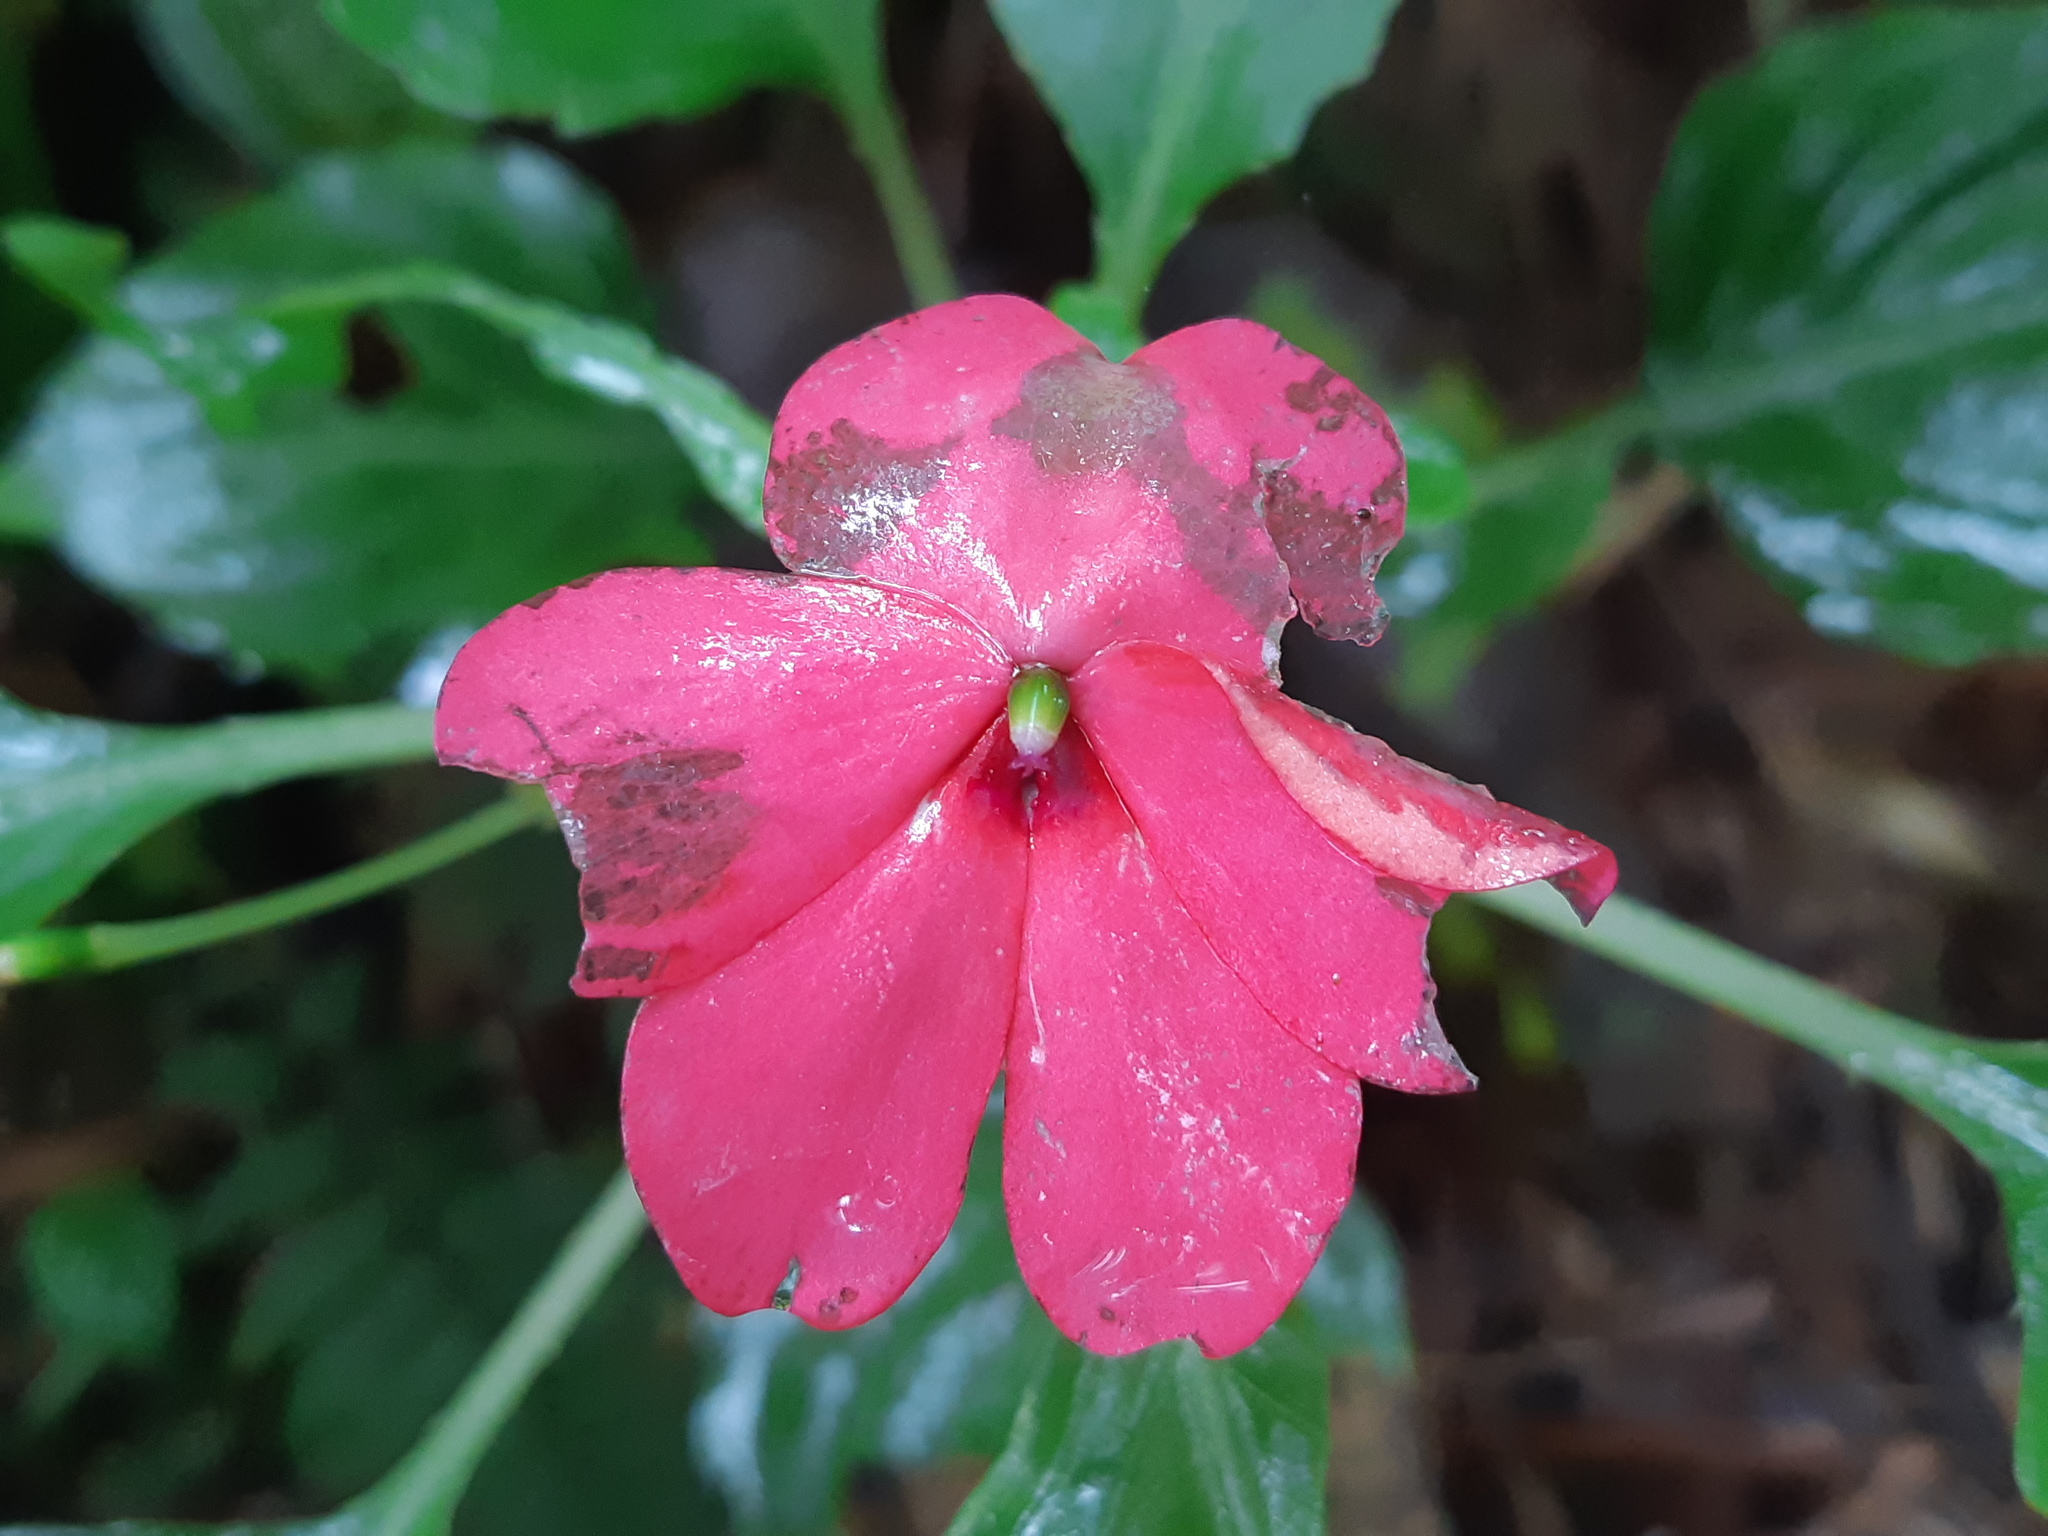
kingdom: Plantae
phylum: Tracheophyta
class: Magnoliopsida
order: Ericales
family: Balsaminaceae
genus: Impatiens
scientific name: Impatiens walleriana
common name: Buzzy lizzy
